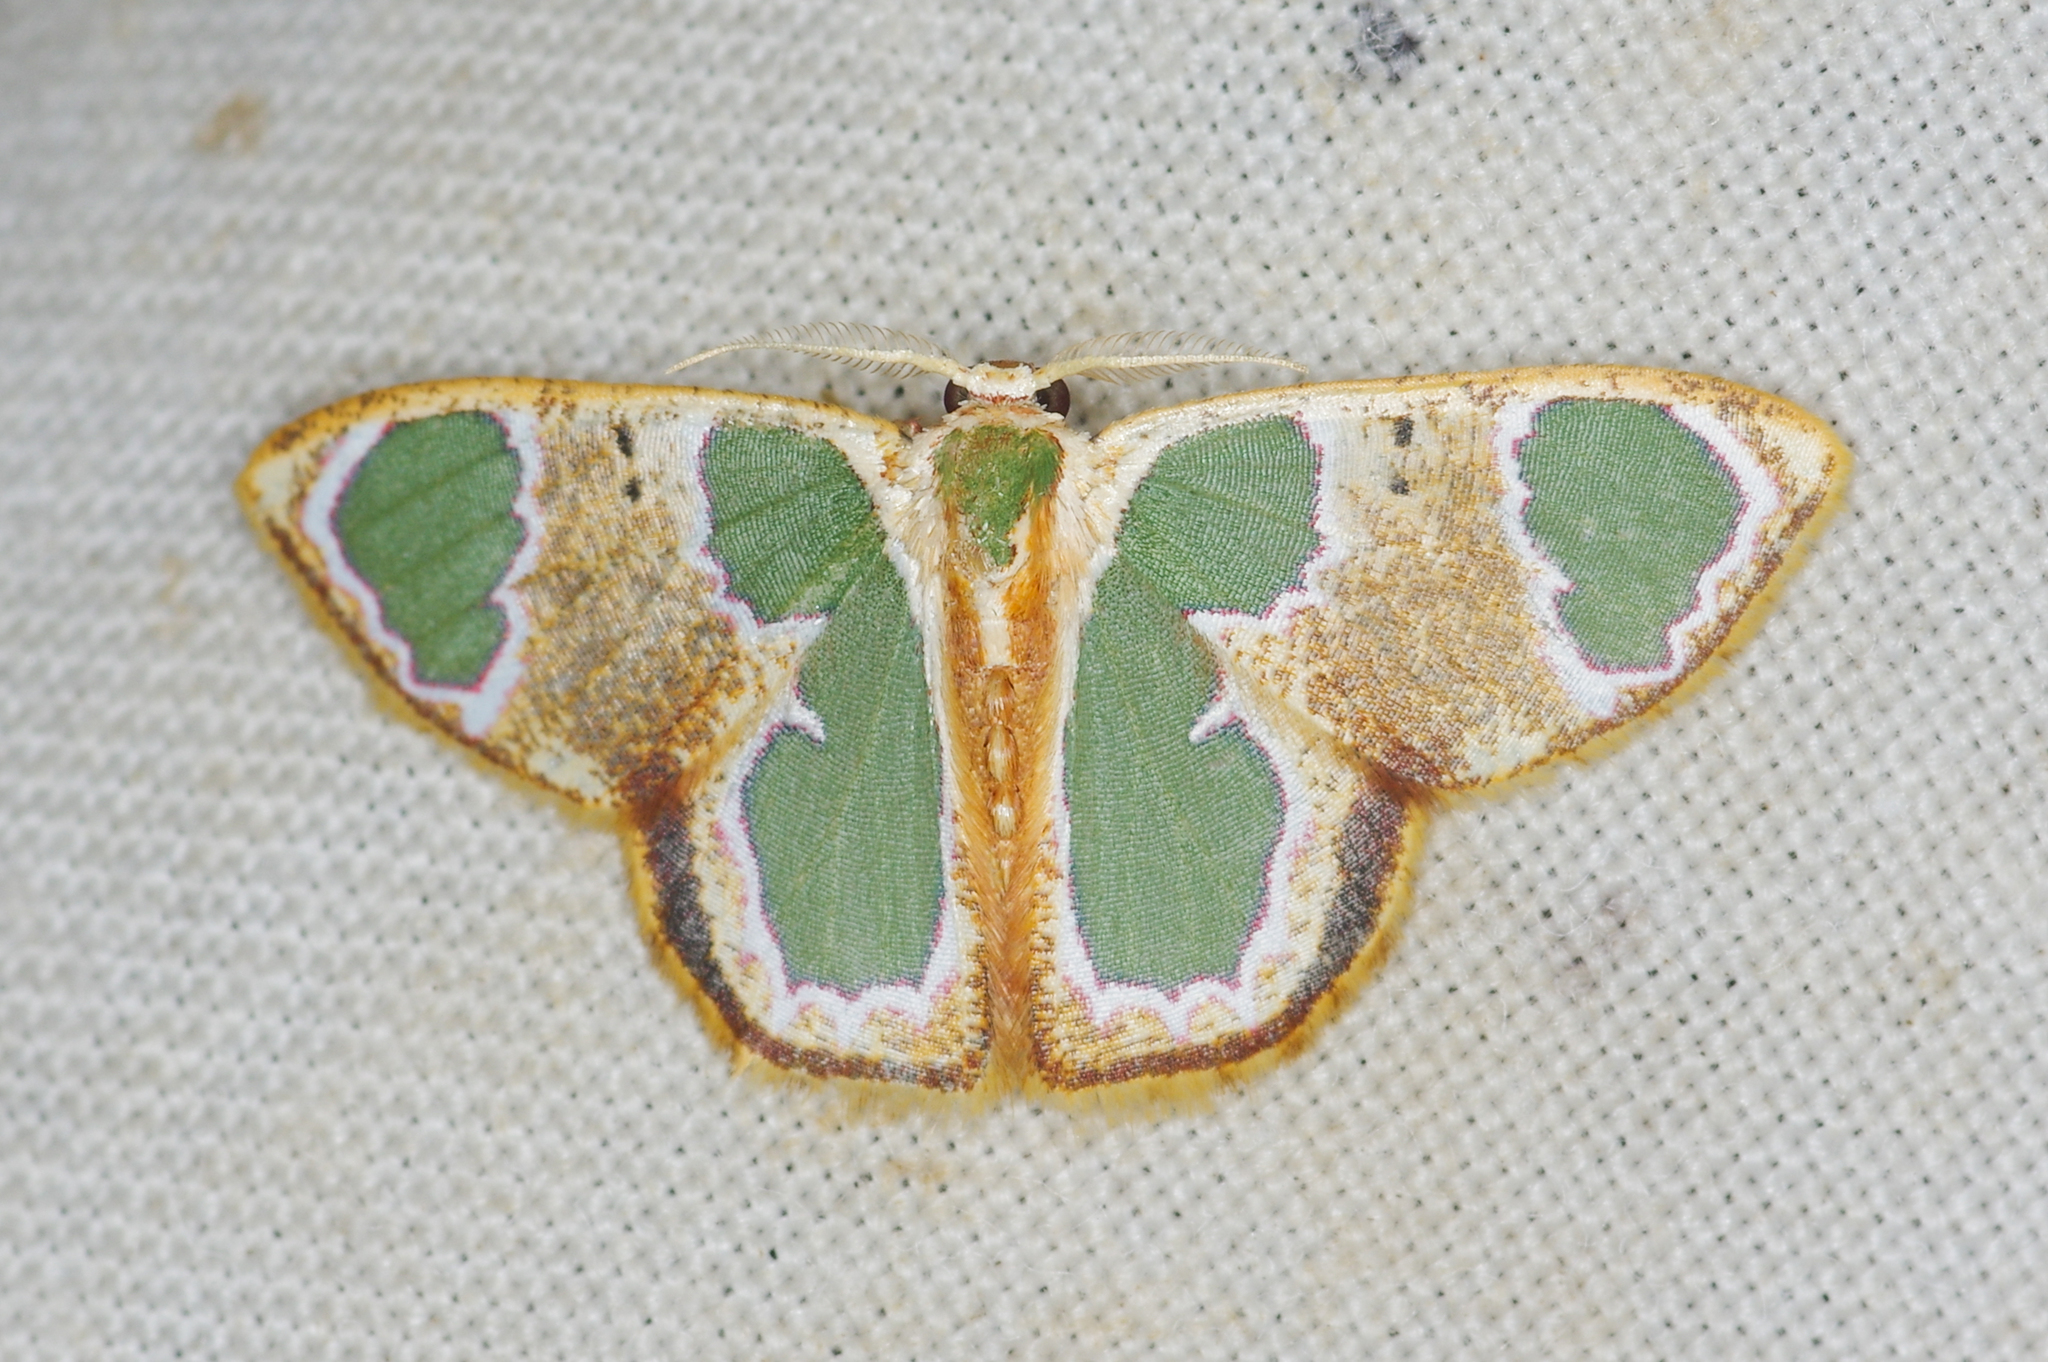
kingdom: Animalia
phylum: Arthropoda
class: Insecta
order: Lepidoptera
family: Geometridae
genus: Oospila
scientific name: Oospila poirieri
